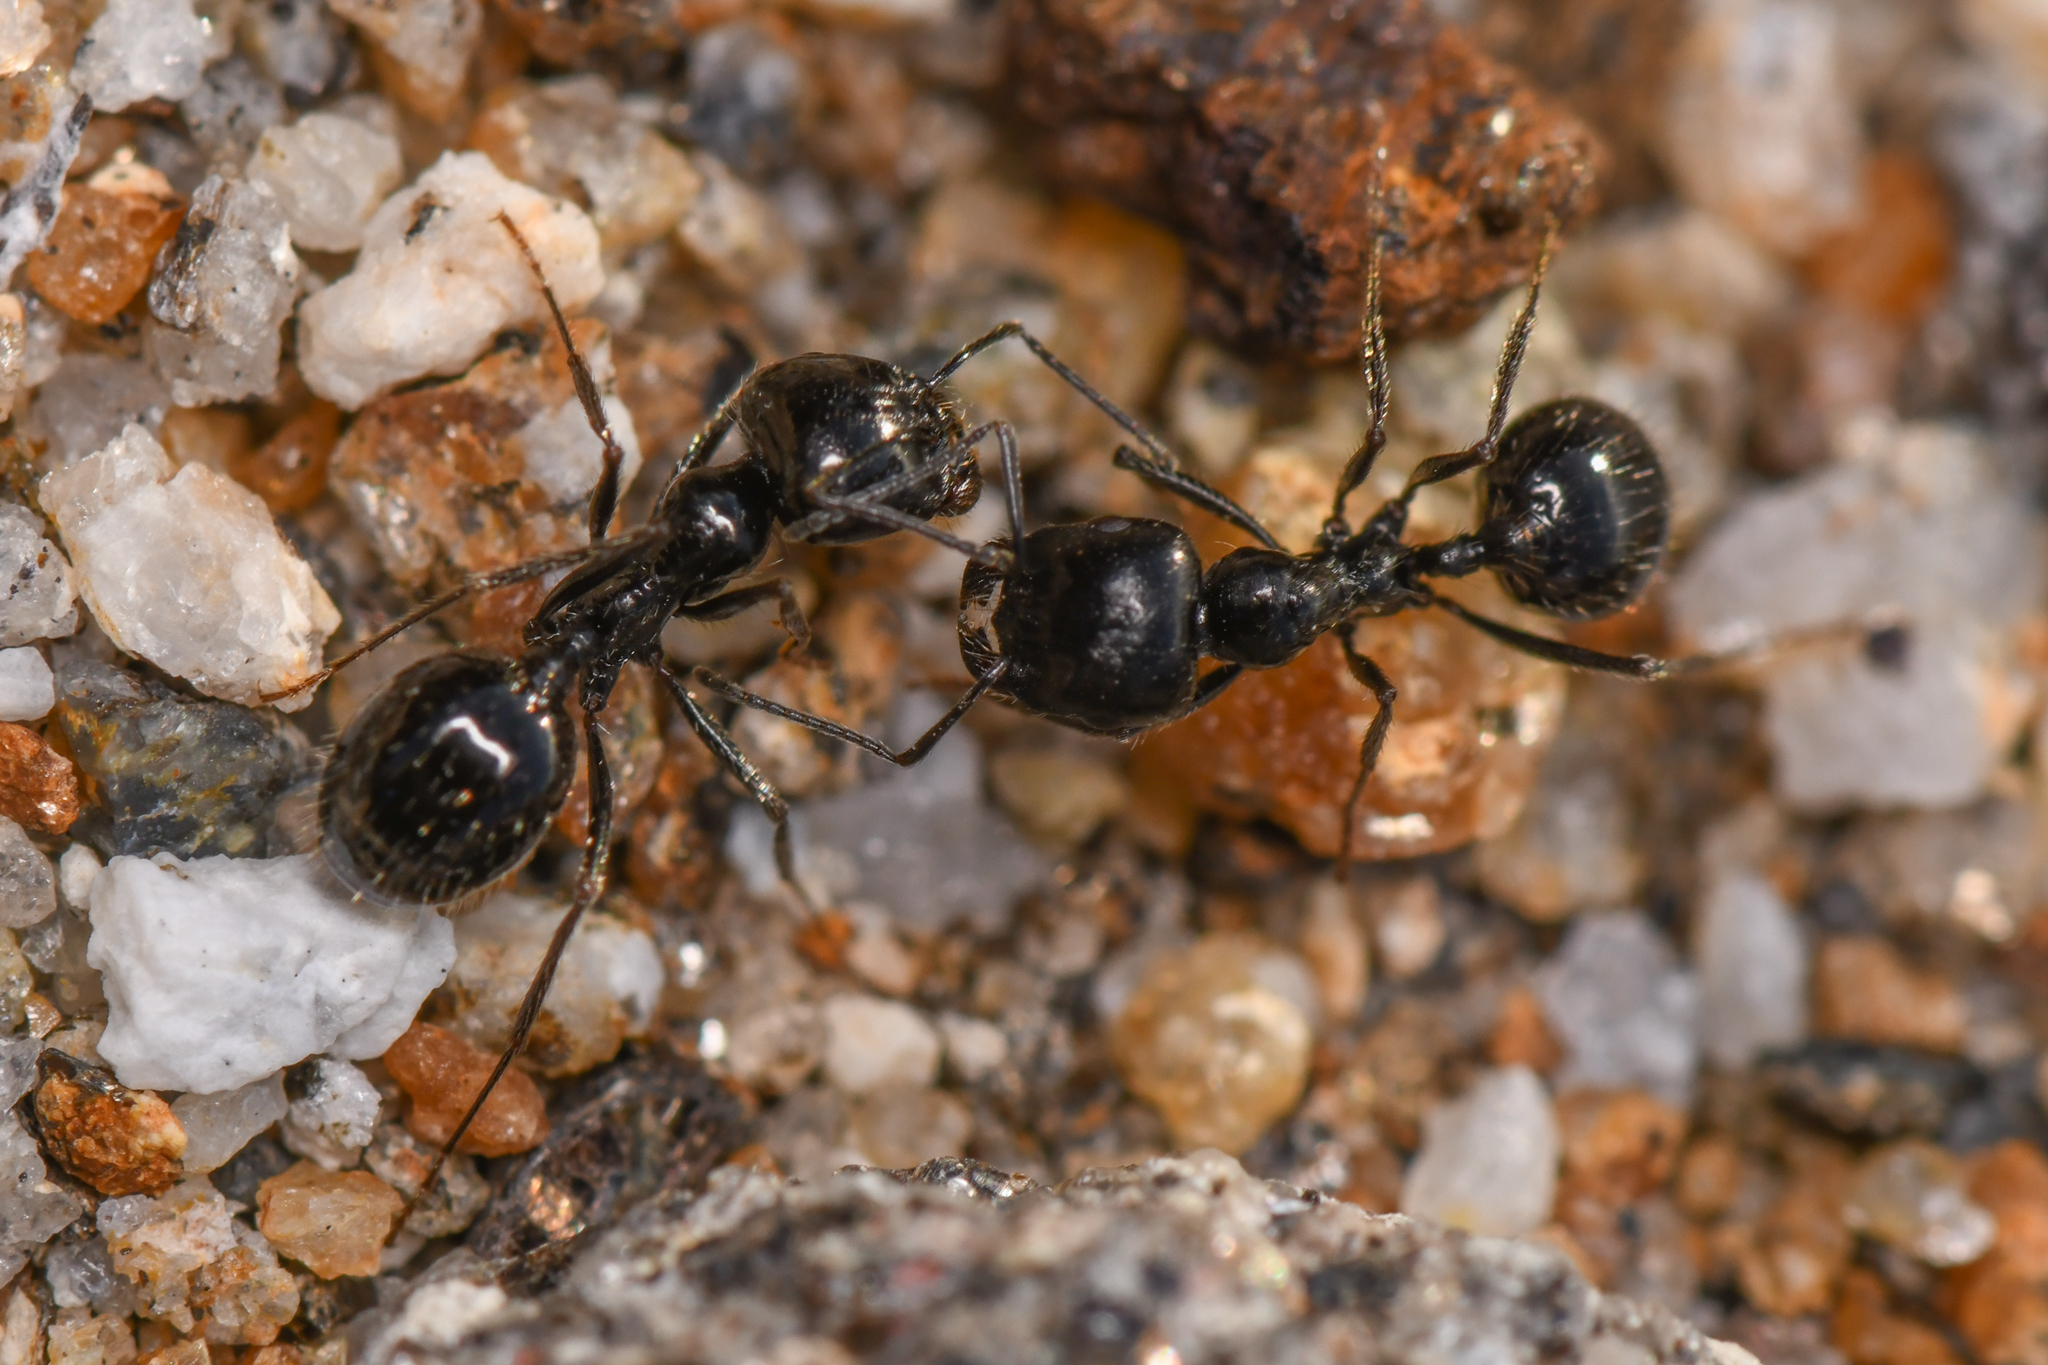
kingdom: Animalia
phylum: Arthropoda
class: Insecta
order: Hymenoptera
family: Formicidae
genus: Messor
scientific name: Messor pergandei
